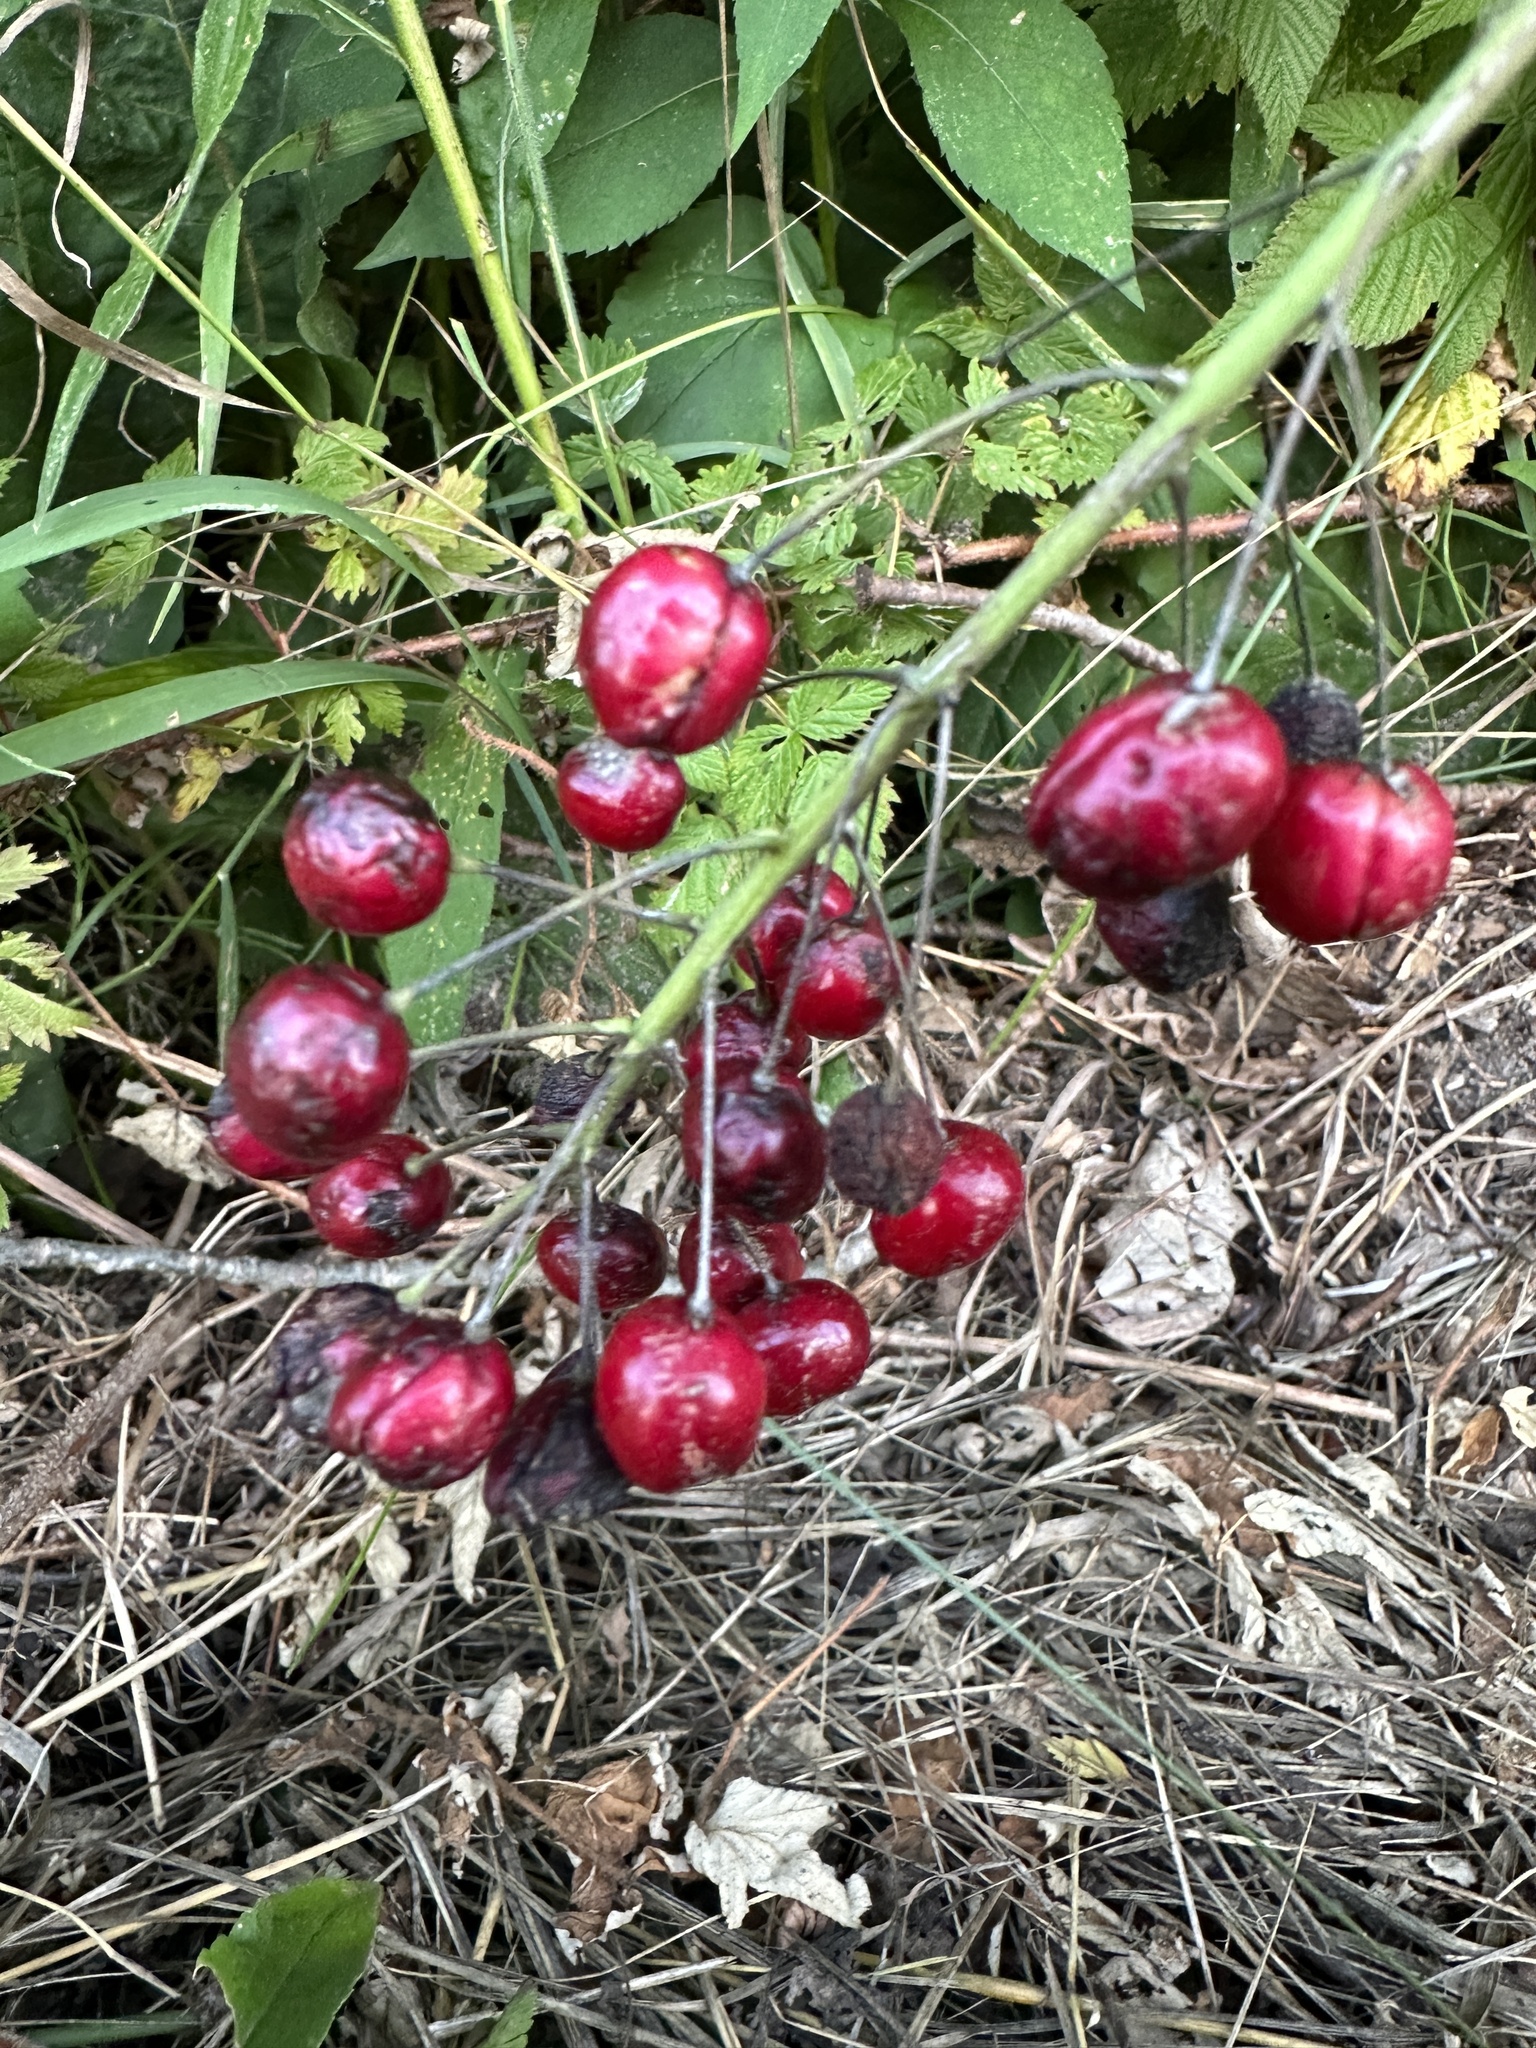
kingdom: Plantae
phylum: Tracheophyta
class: Magnoliopsida
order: Ranunculales
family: Ranunculaceae
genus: Actaea
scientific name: Actaea rubra
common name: Red baneberry
